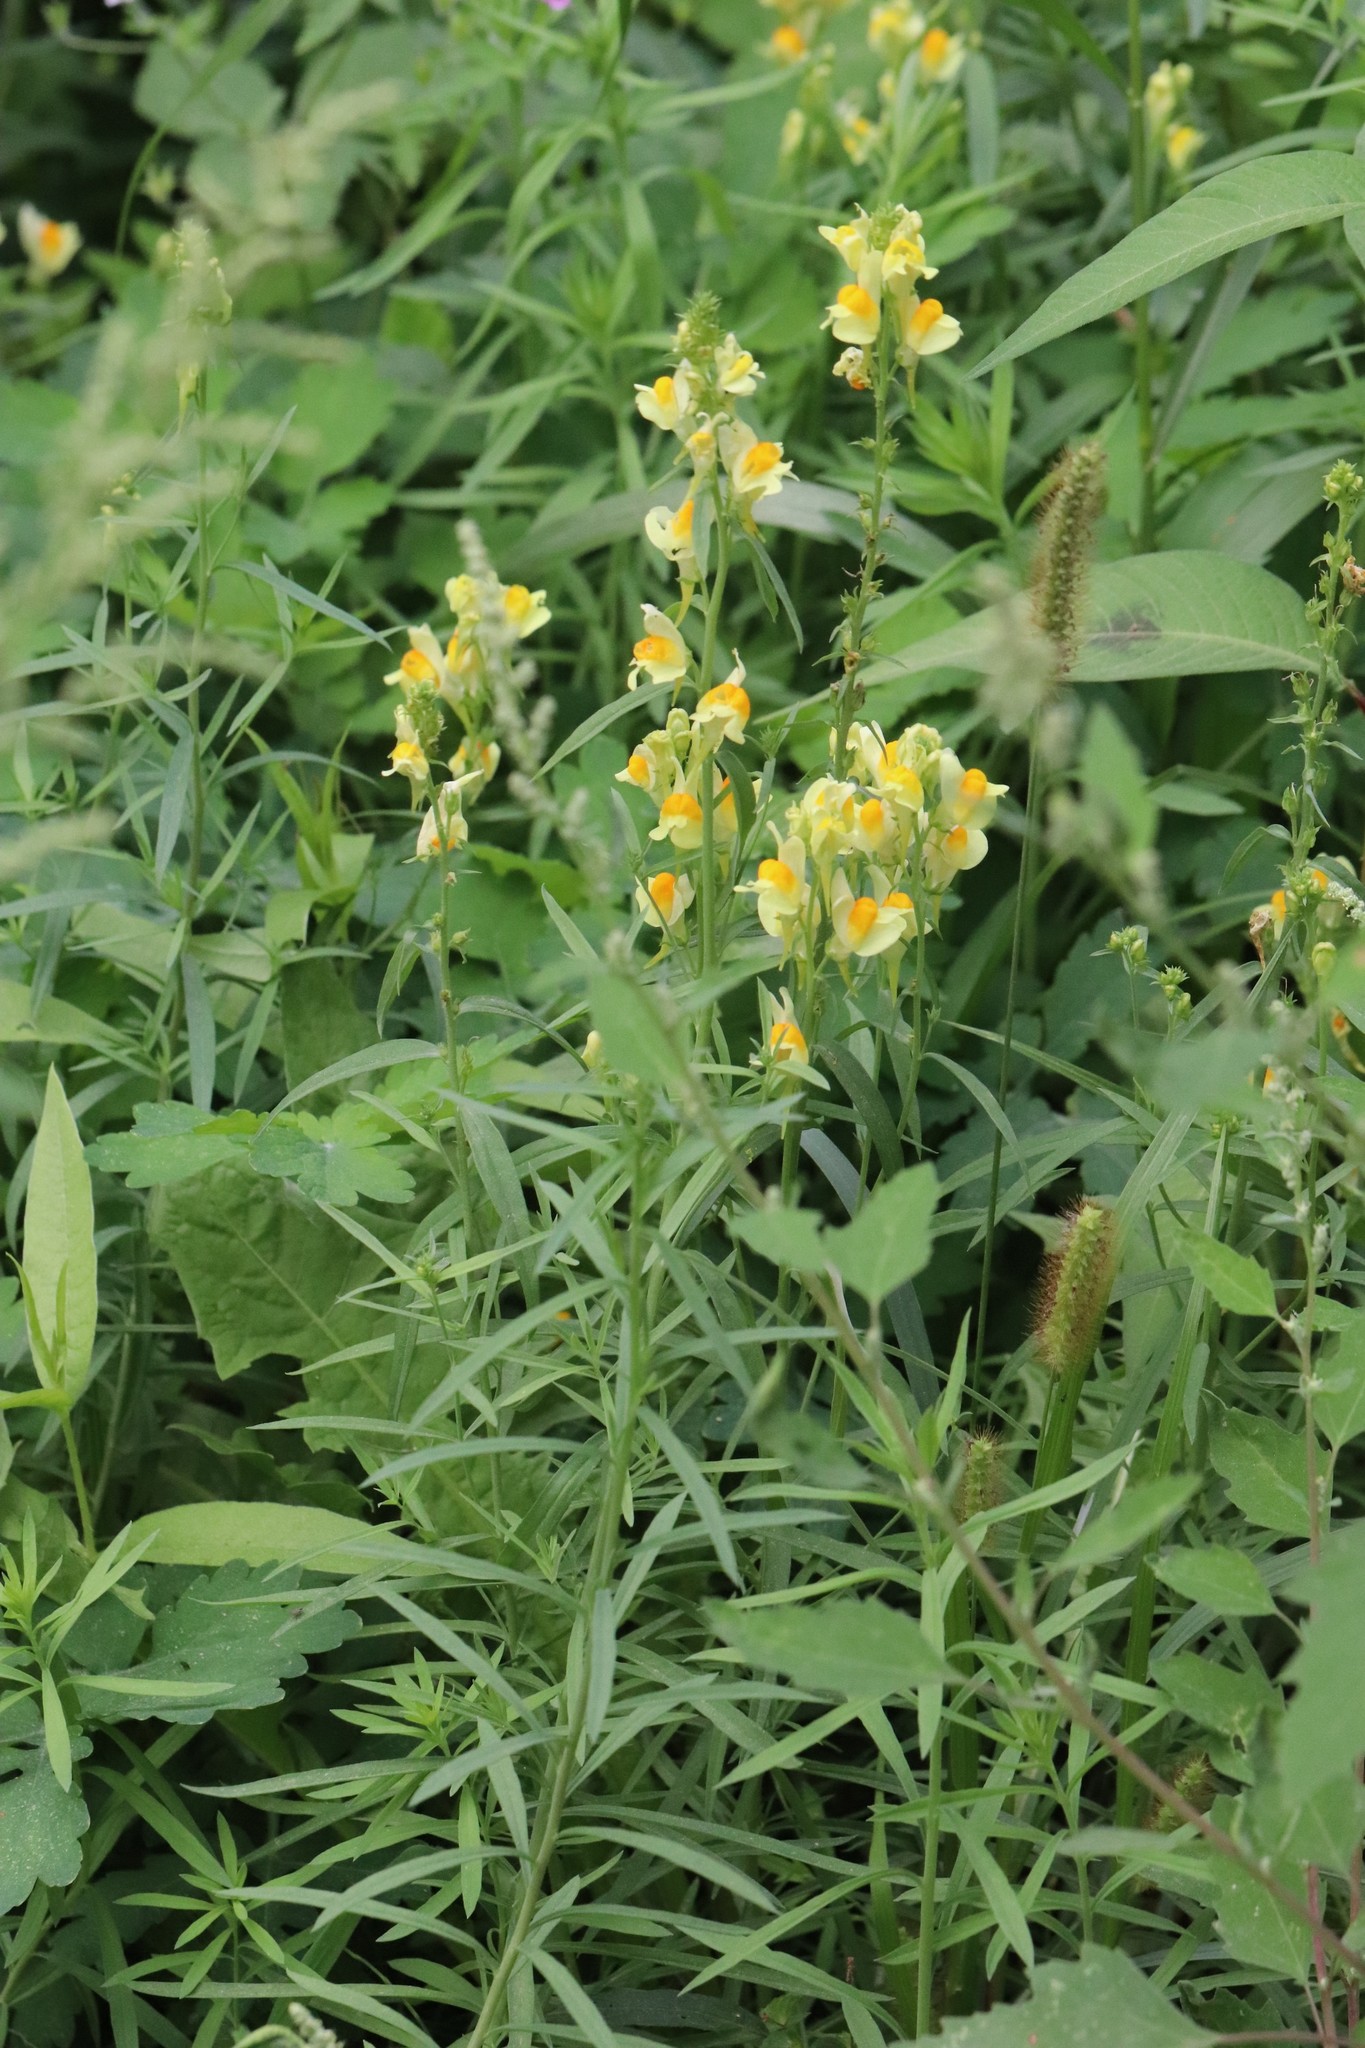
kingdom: Plantae
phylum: Tracheophyta
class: Magnoliopsida
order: Lamiales
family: Plantaginaceae
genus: Linaria
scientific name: Linaria vulgaris
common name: Butter and eggs
